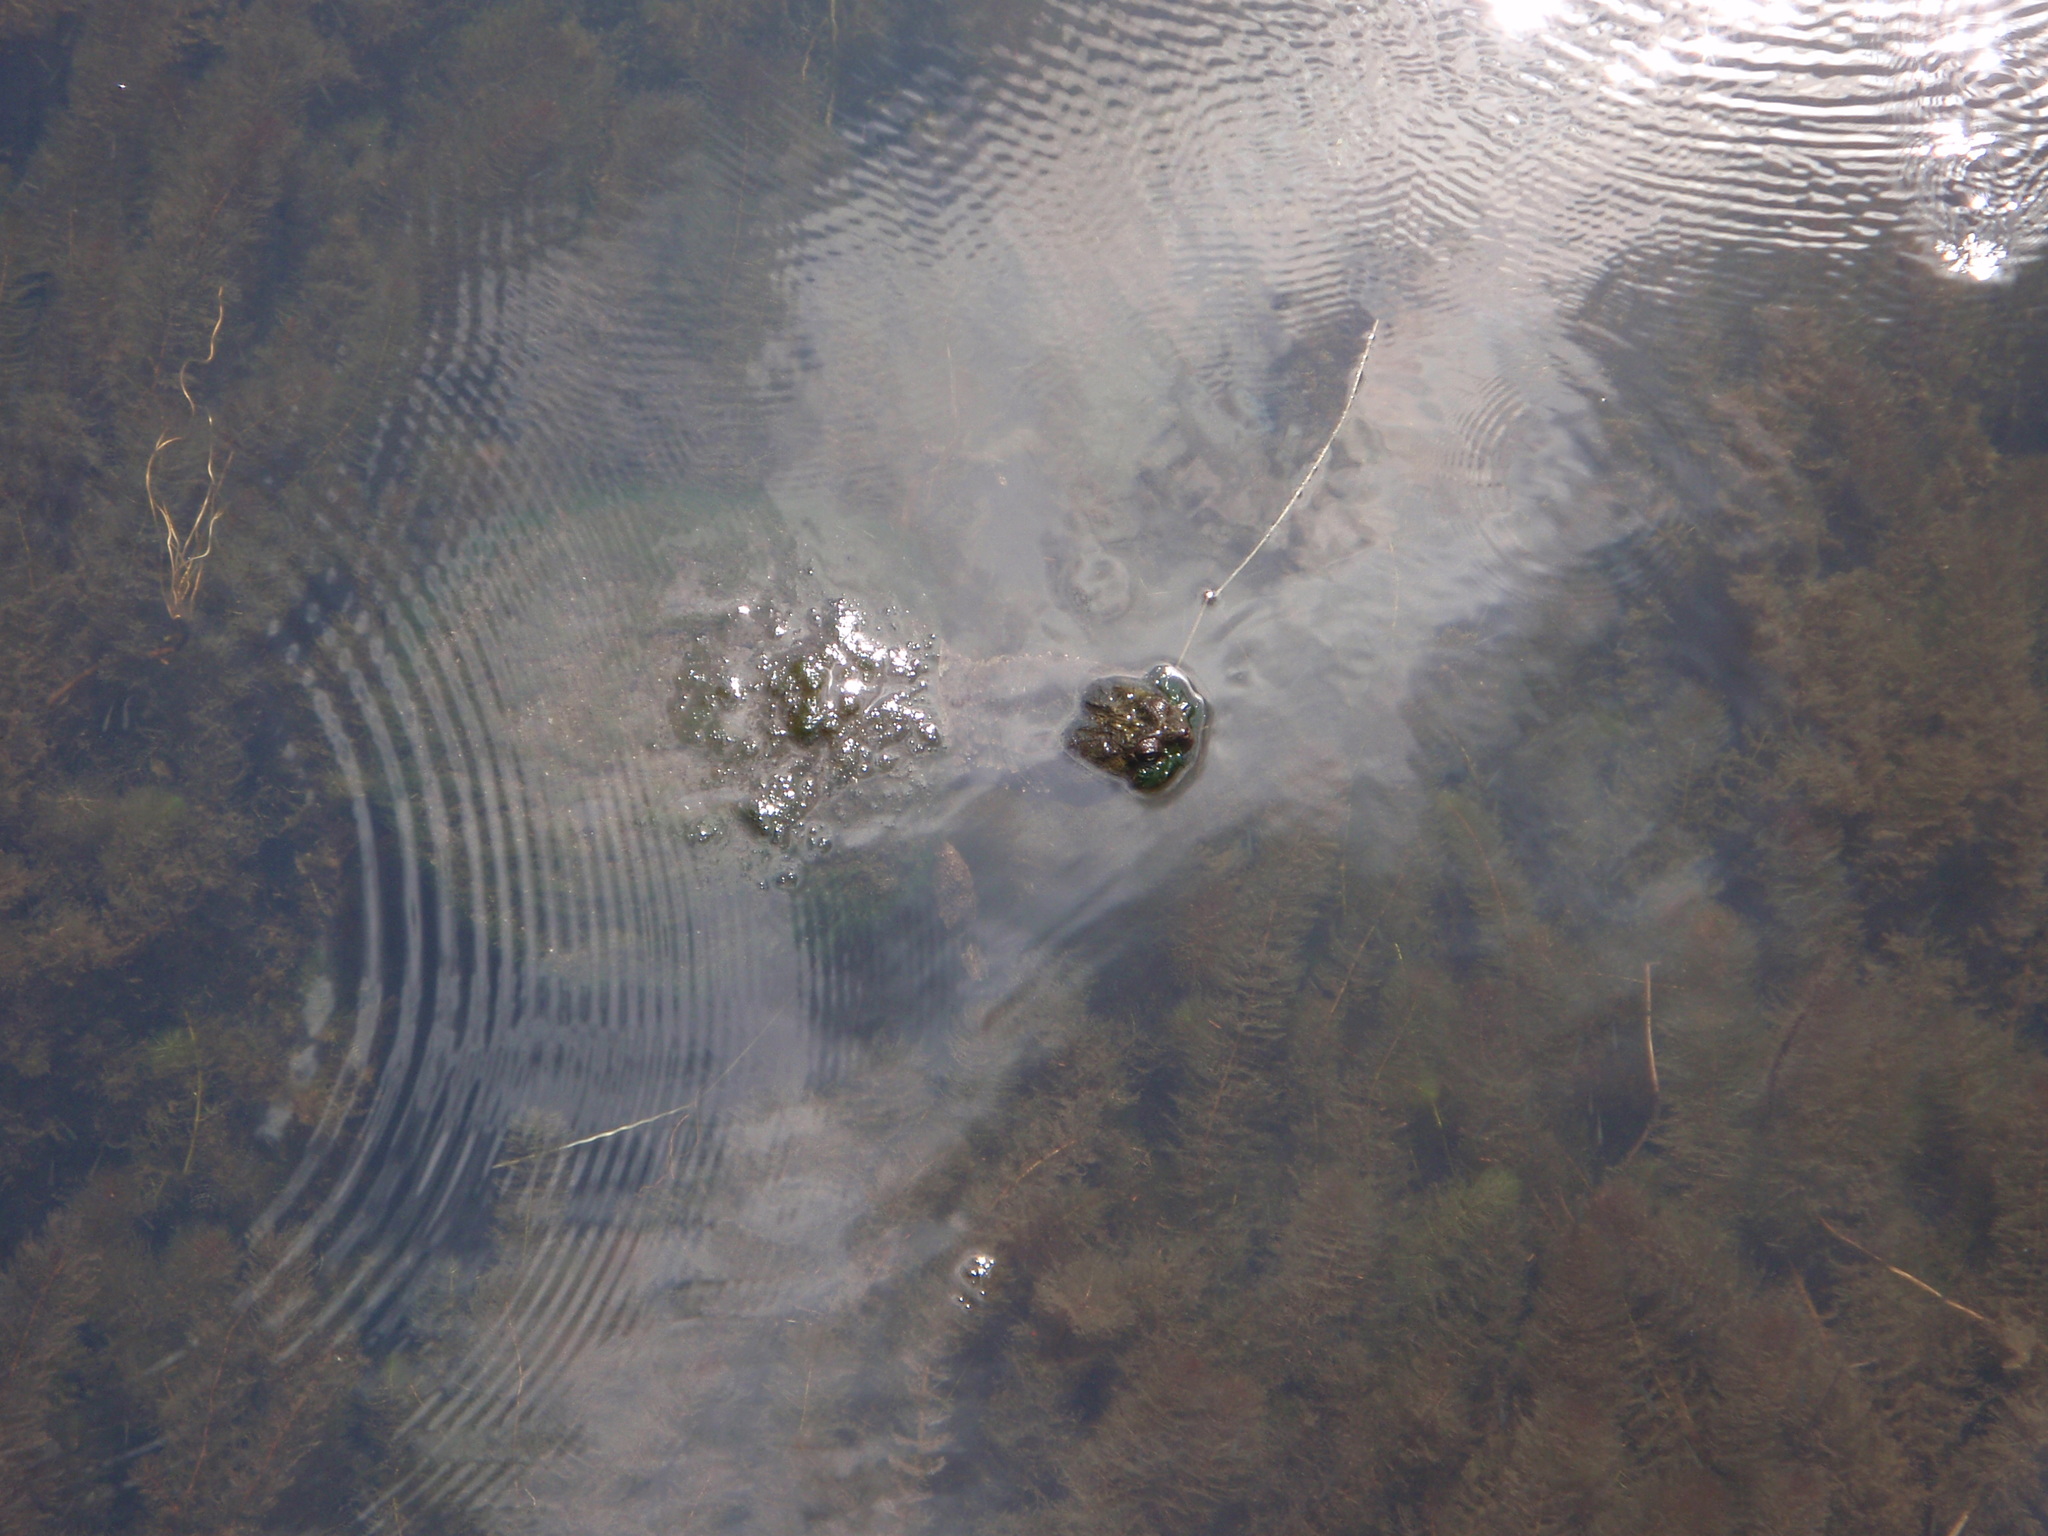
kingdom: Animalia
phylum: Chordata
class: Testudines
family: Chelydridae
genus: Chelydra
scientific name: Chelydra serpentina
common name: Common snapping turtle
